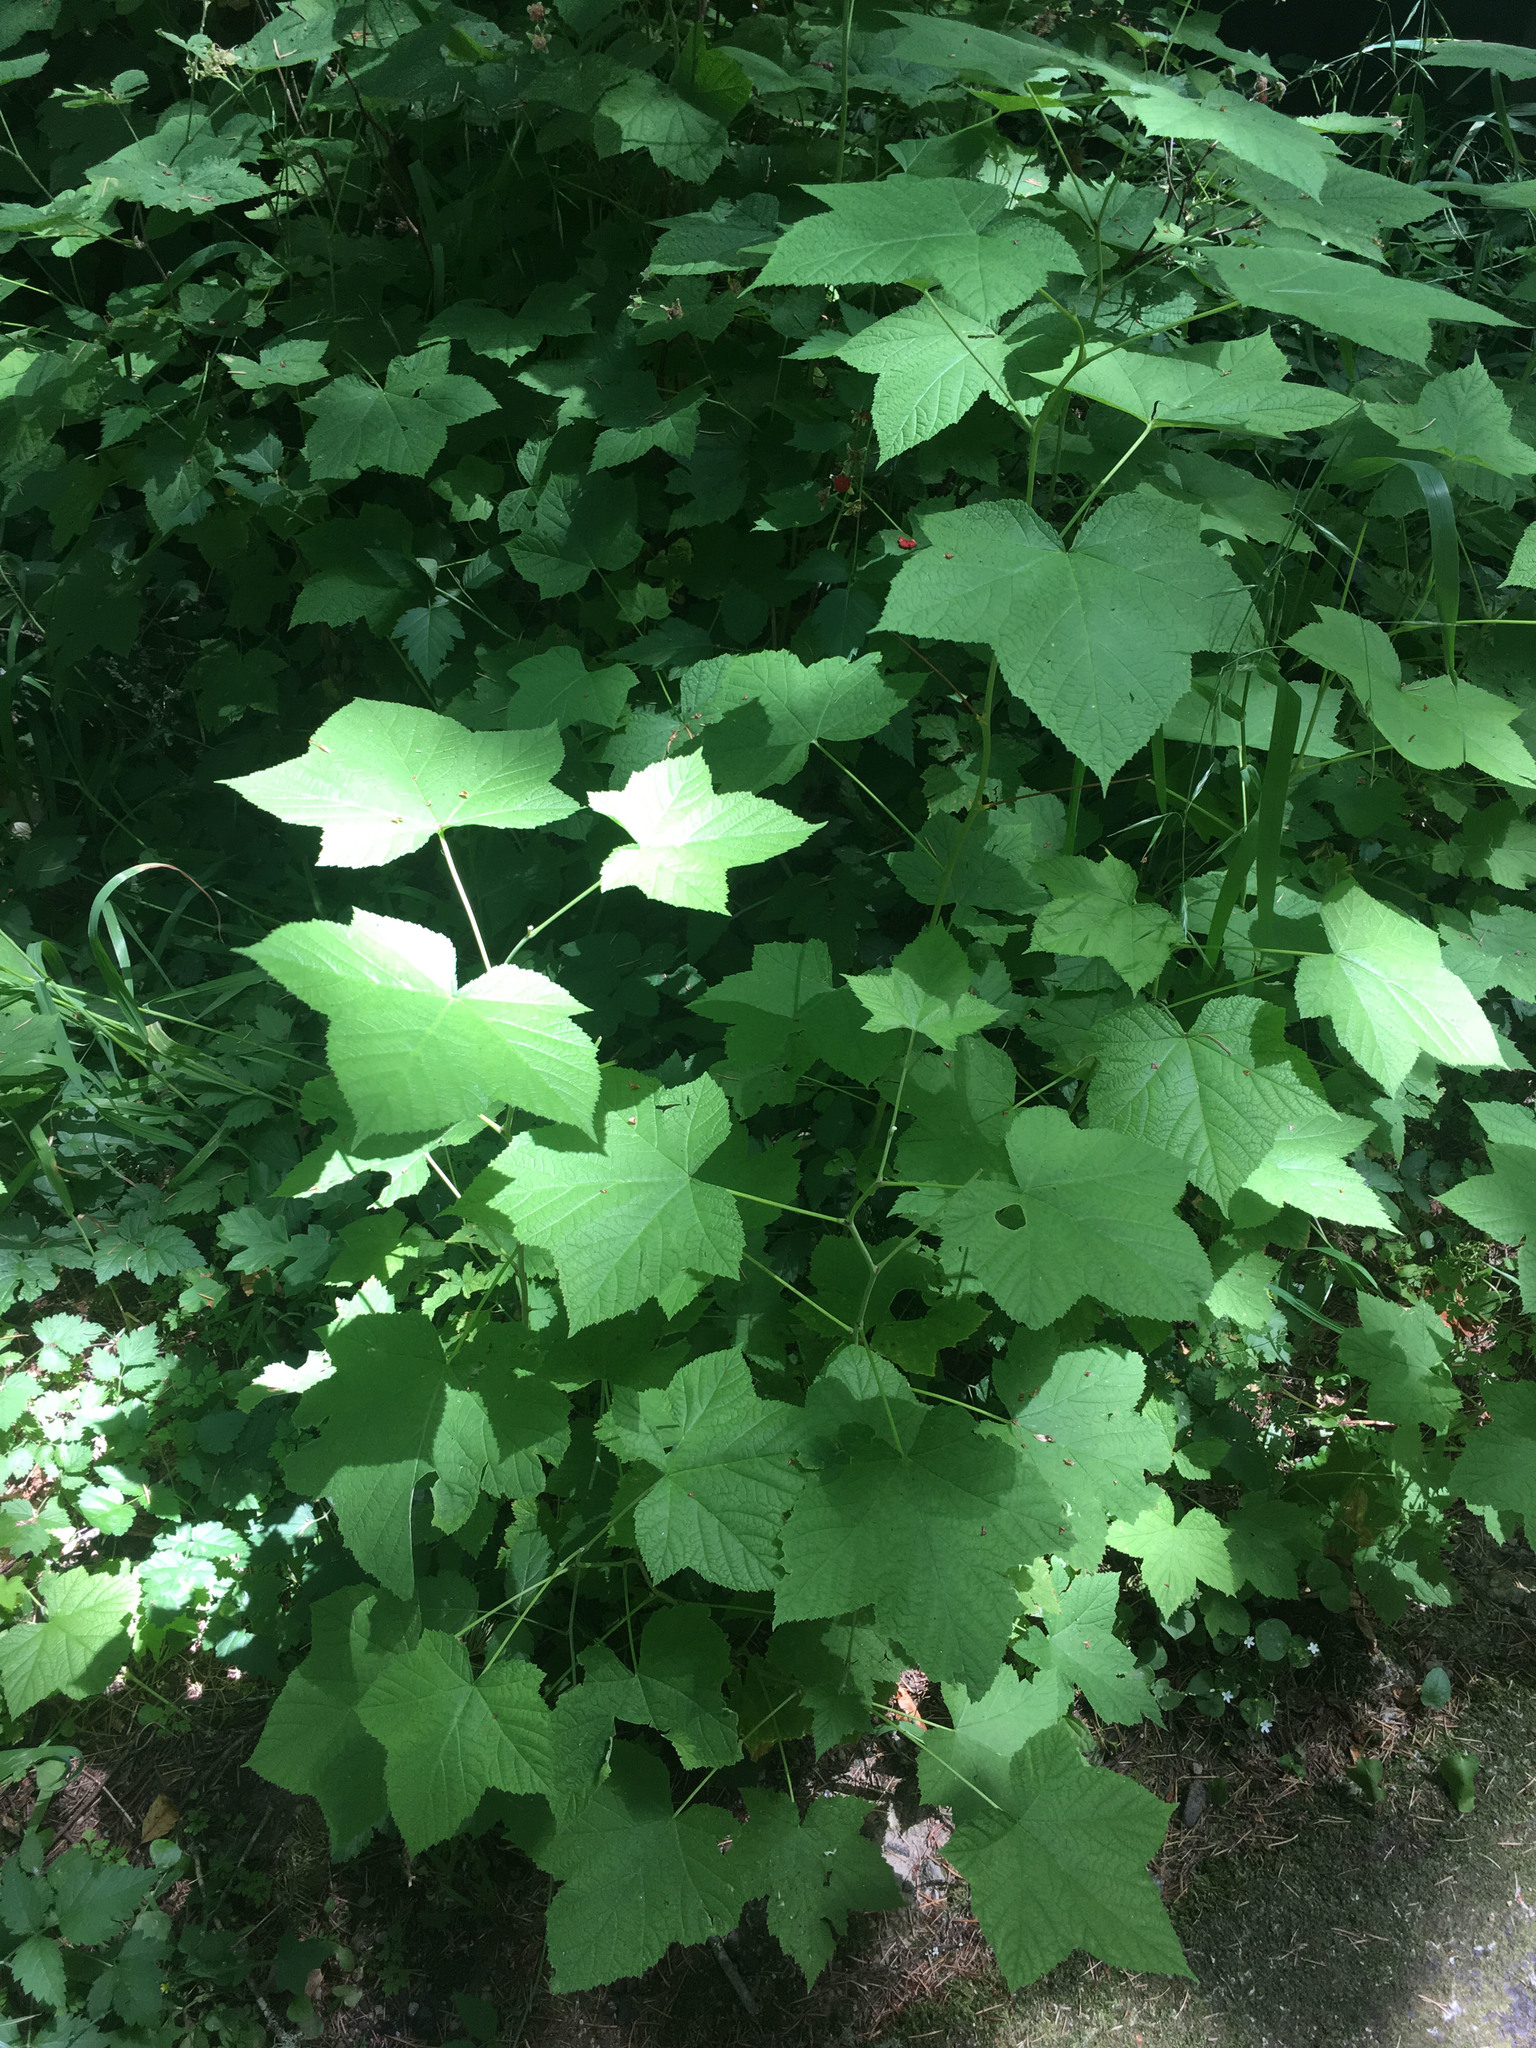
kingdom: Plantae
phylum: Tracheophyta
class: Magnoliopsida
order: Rosales
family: Rosaceae
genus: Rubus
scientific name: Rubus parviflorus
